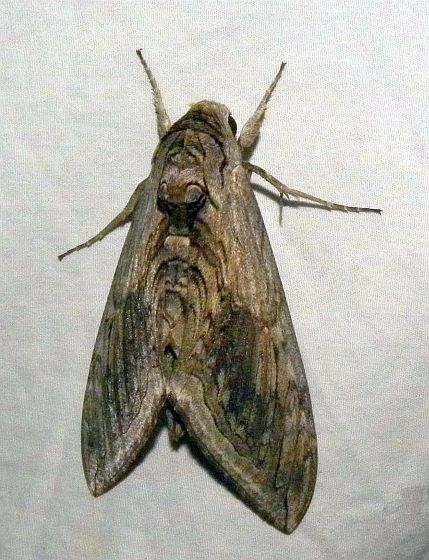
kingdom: Animalia
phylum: Arthropoda
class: Insecta
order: Lepidoptera
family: Sphingidae
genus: Manduca
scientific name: Manduca quinquemaculatus
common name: Five-spotted hawk-moth
